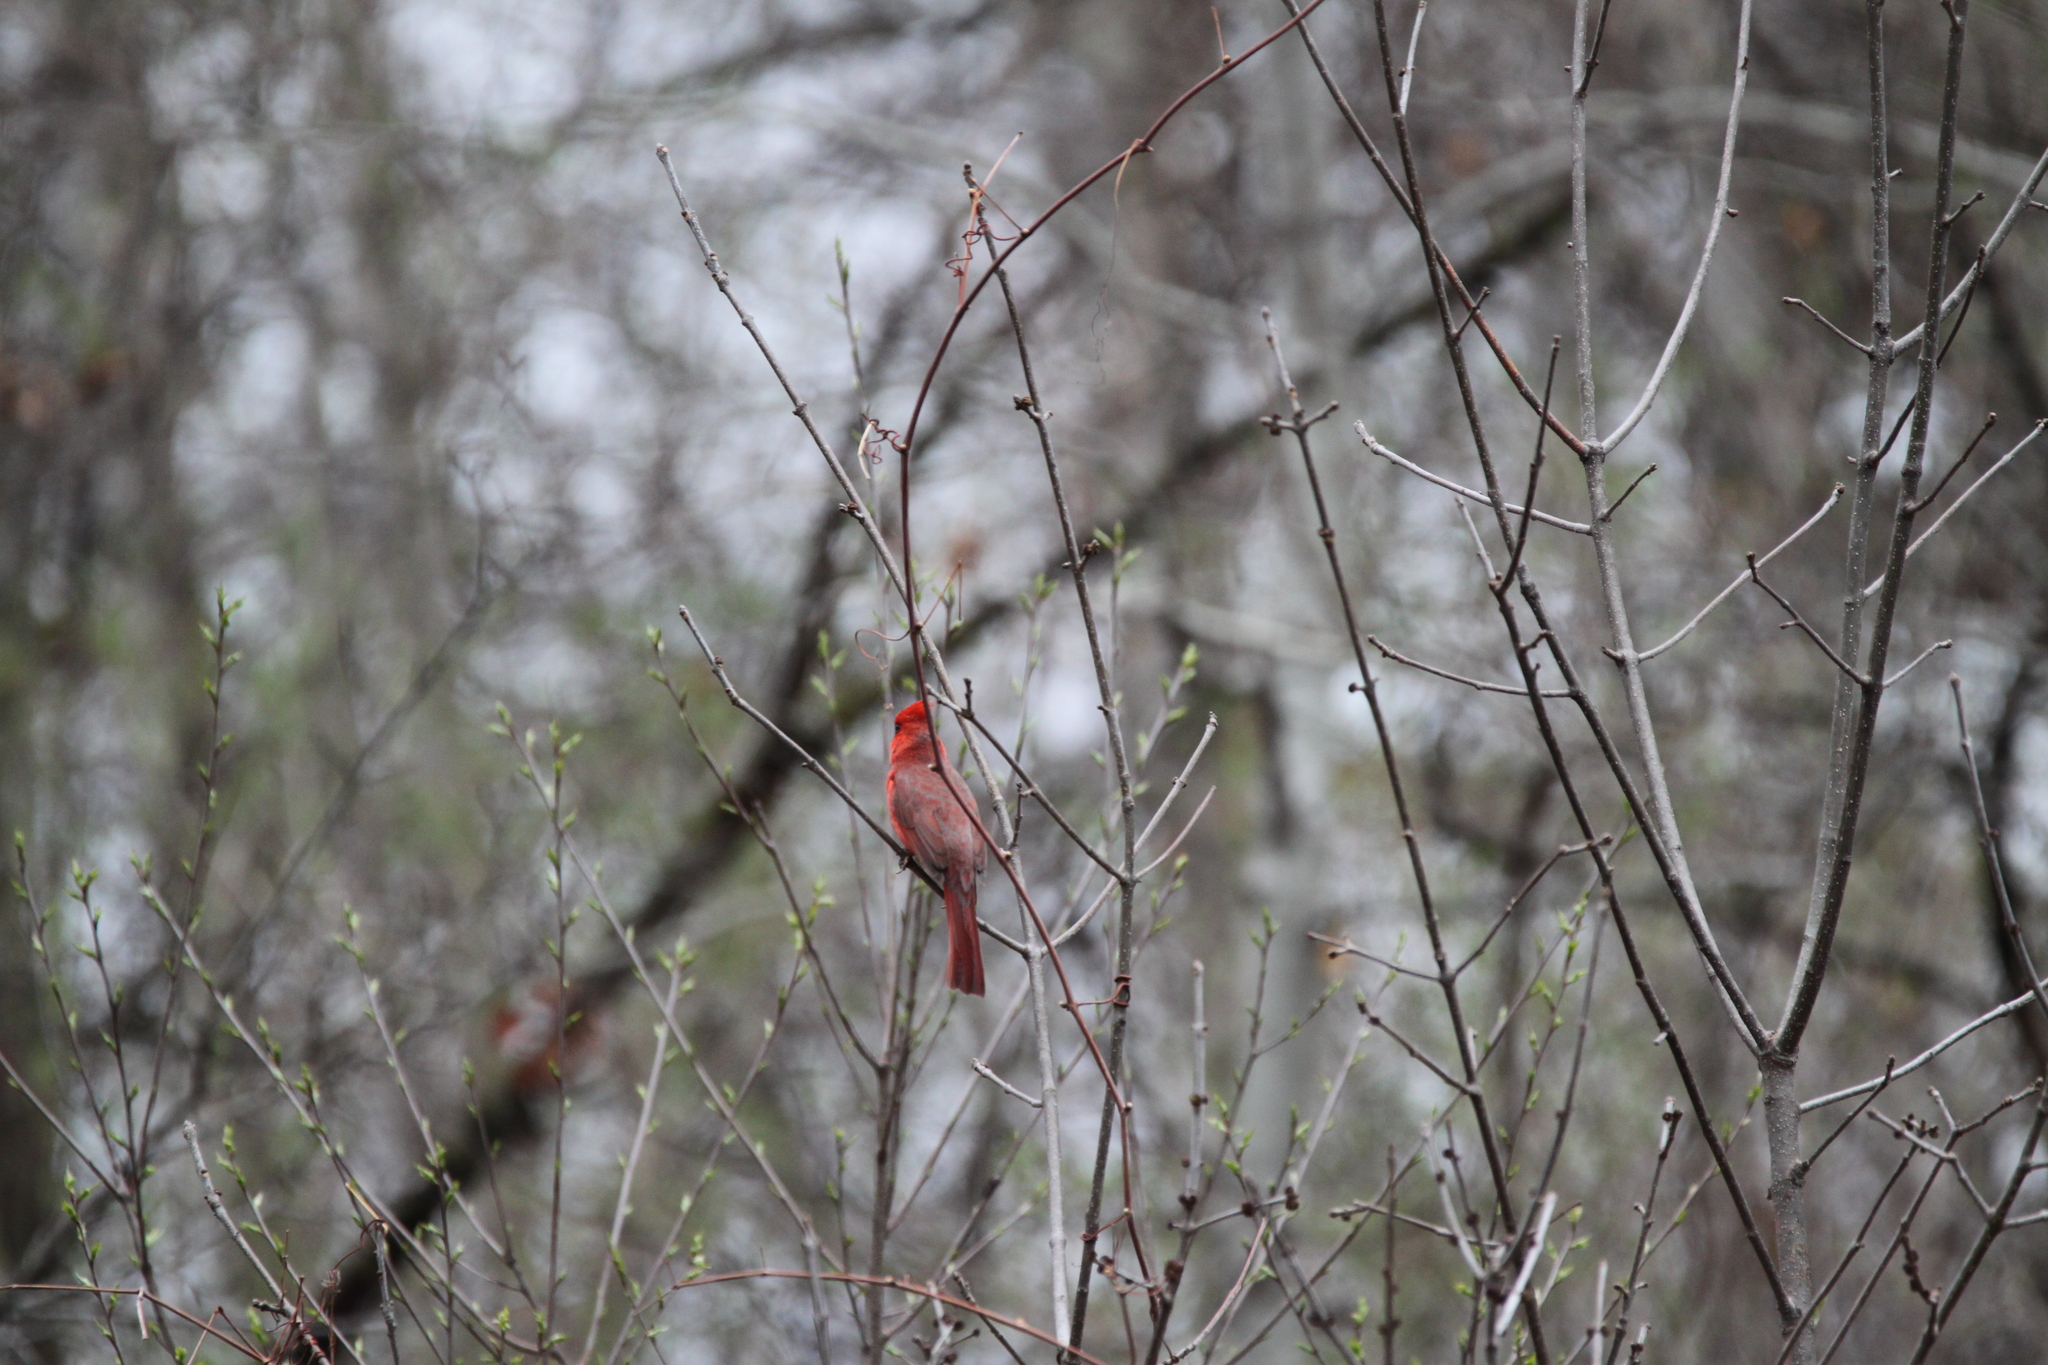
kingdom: Animalia
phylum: Chordata
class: Aves
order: Passeriformes
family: Cardinalidae
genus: Cardinalis
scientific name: Cardinalis cardinalis
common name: Northern cardinal
